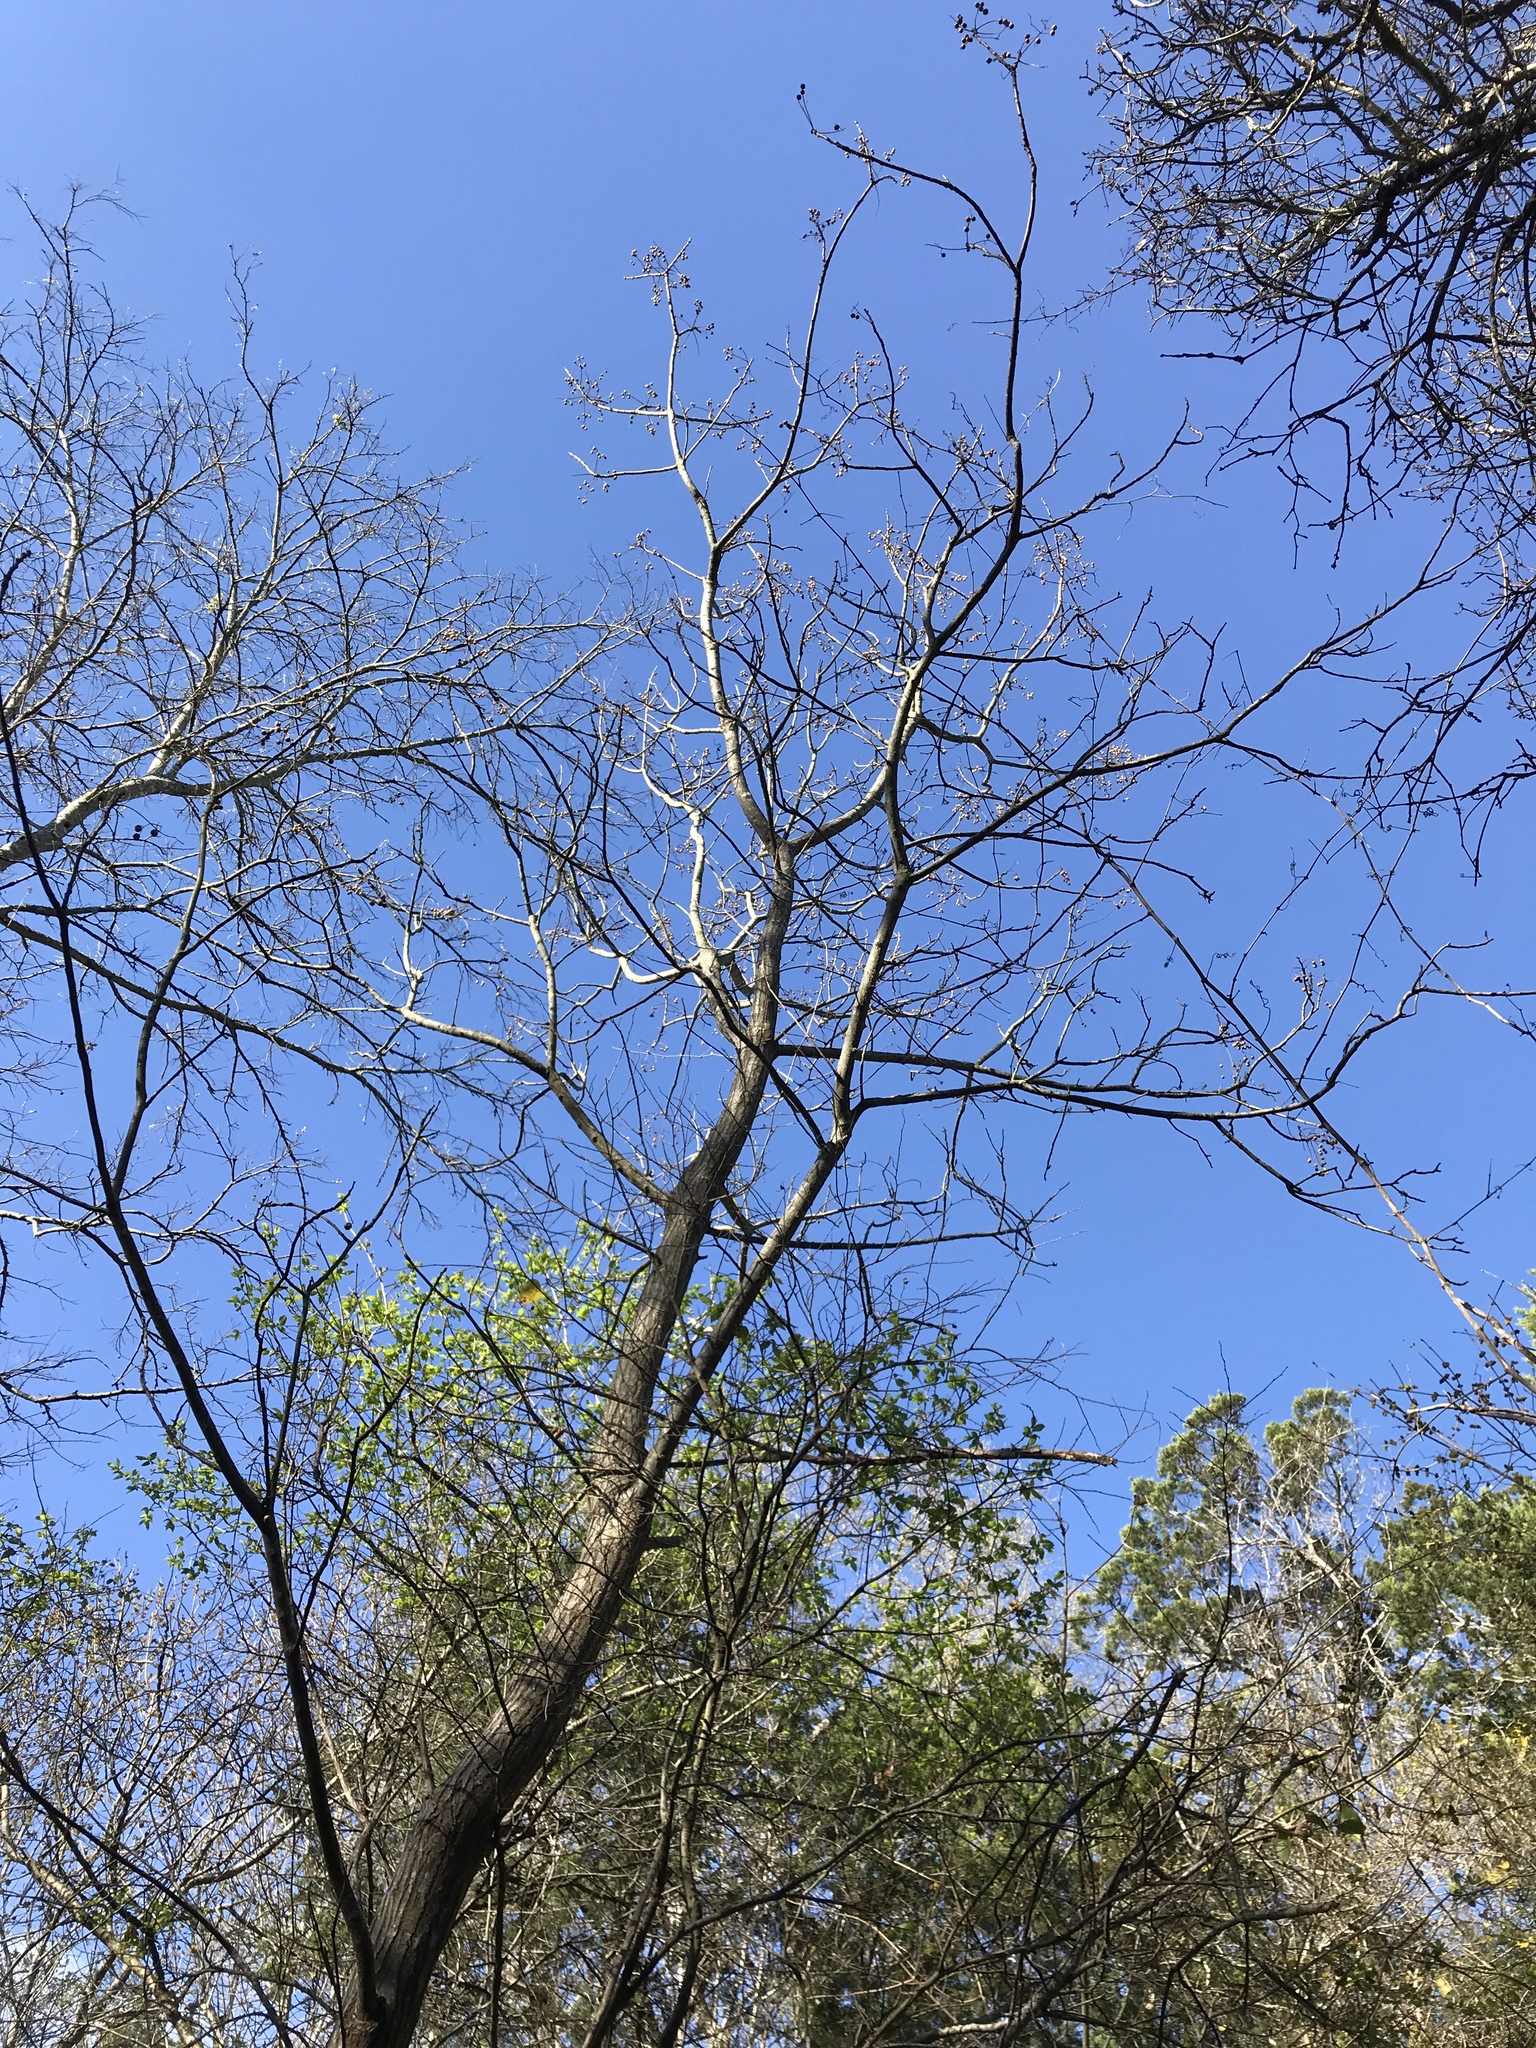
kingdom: Plantae
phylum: Tracheophyta
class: Magnoliopsida
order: Sapindales
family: Meliaceae
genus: Melia
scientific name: Melia azedarach
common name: Chinaberrytree
